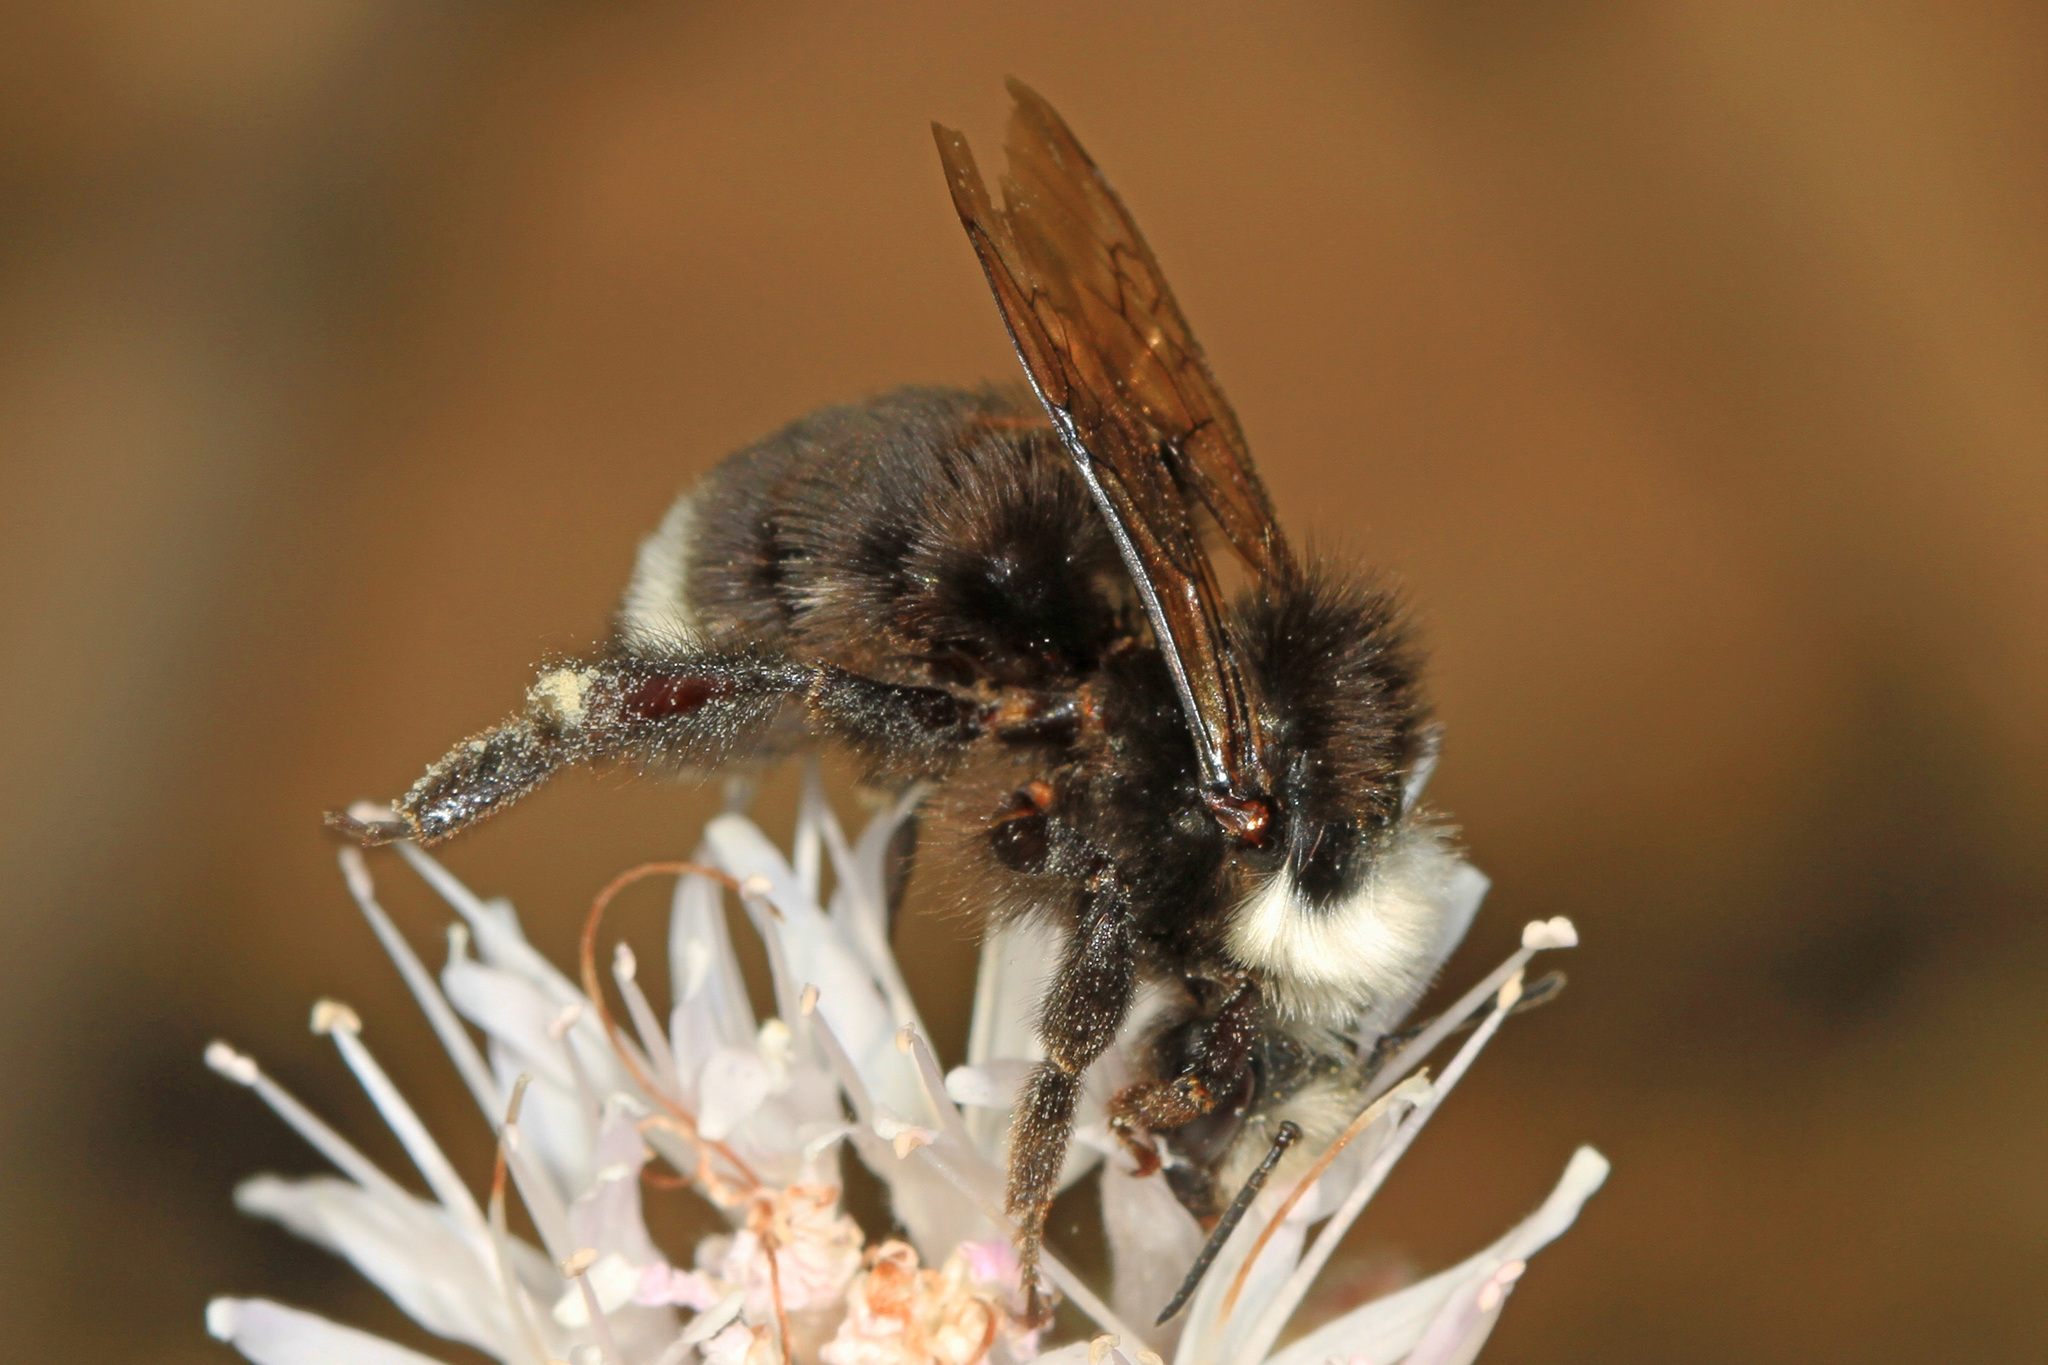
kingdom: Animalia
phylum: Arthropoda
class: Insecta
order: Hymenoptera
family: Apidae
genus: Bombus
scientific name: Bombus vosnesenskii
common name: Vosnesensky bumble bee
